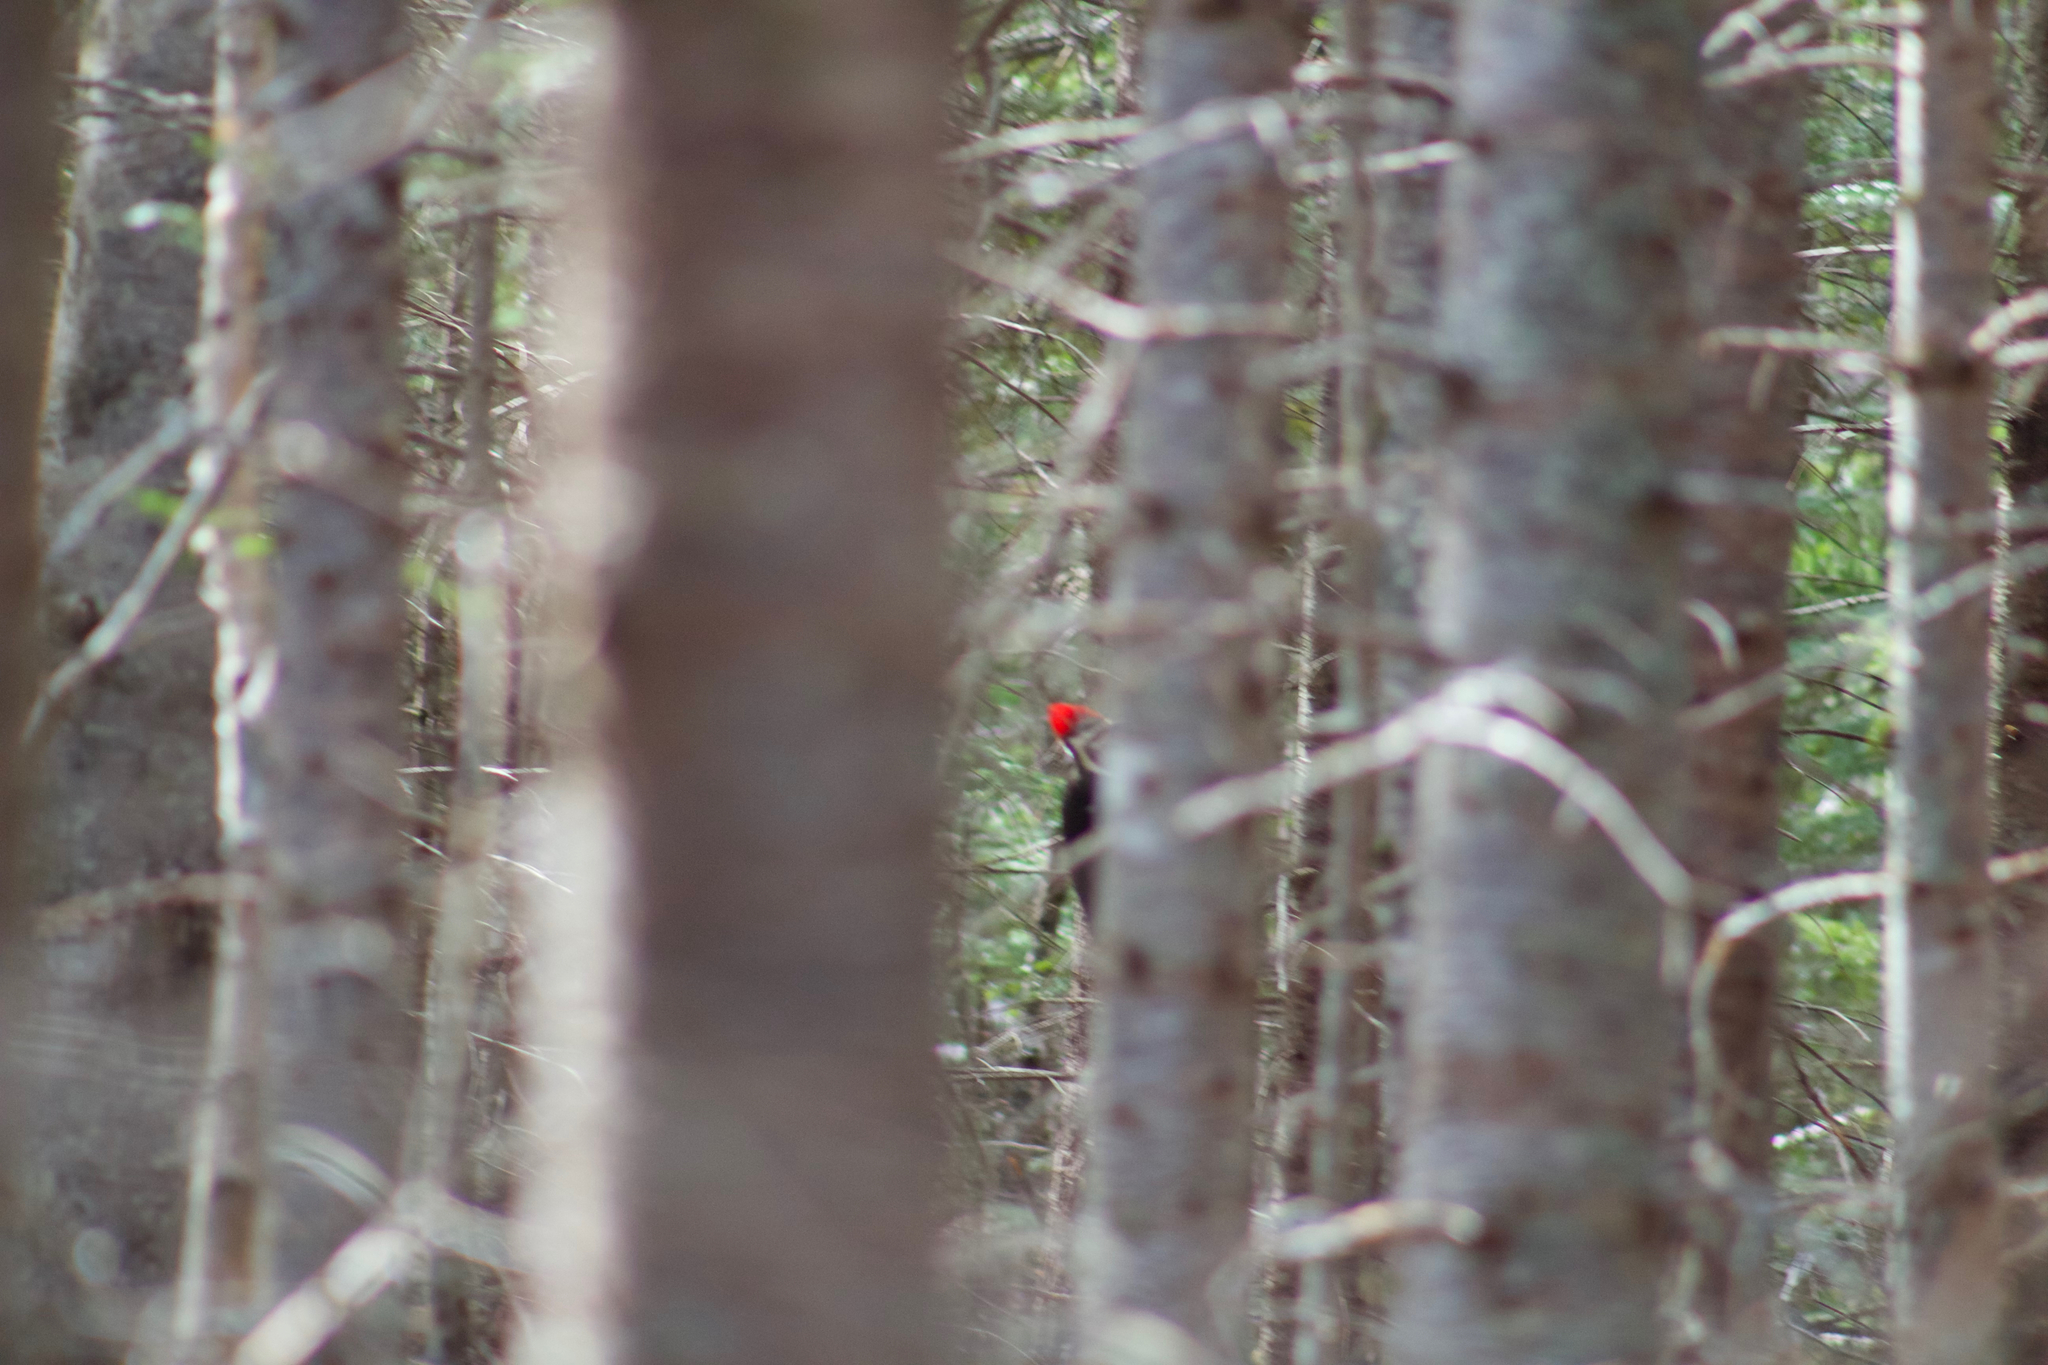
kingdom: Animalia
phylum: Chordata
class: Aves
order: Piciformes
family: Picidae
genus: Dryocopus
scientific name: Dryocopus pileatus
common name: Pileated woodpecker
